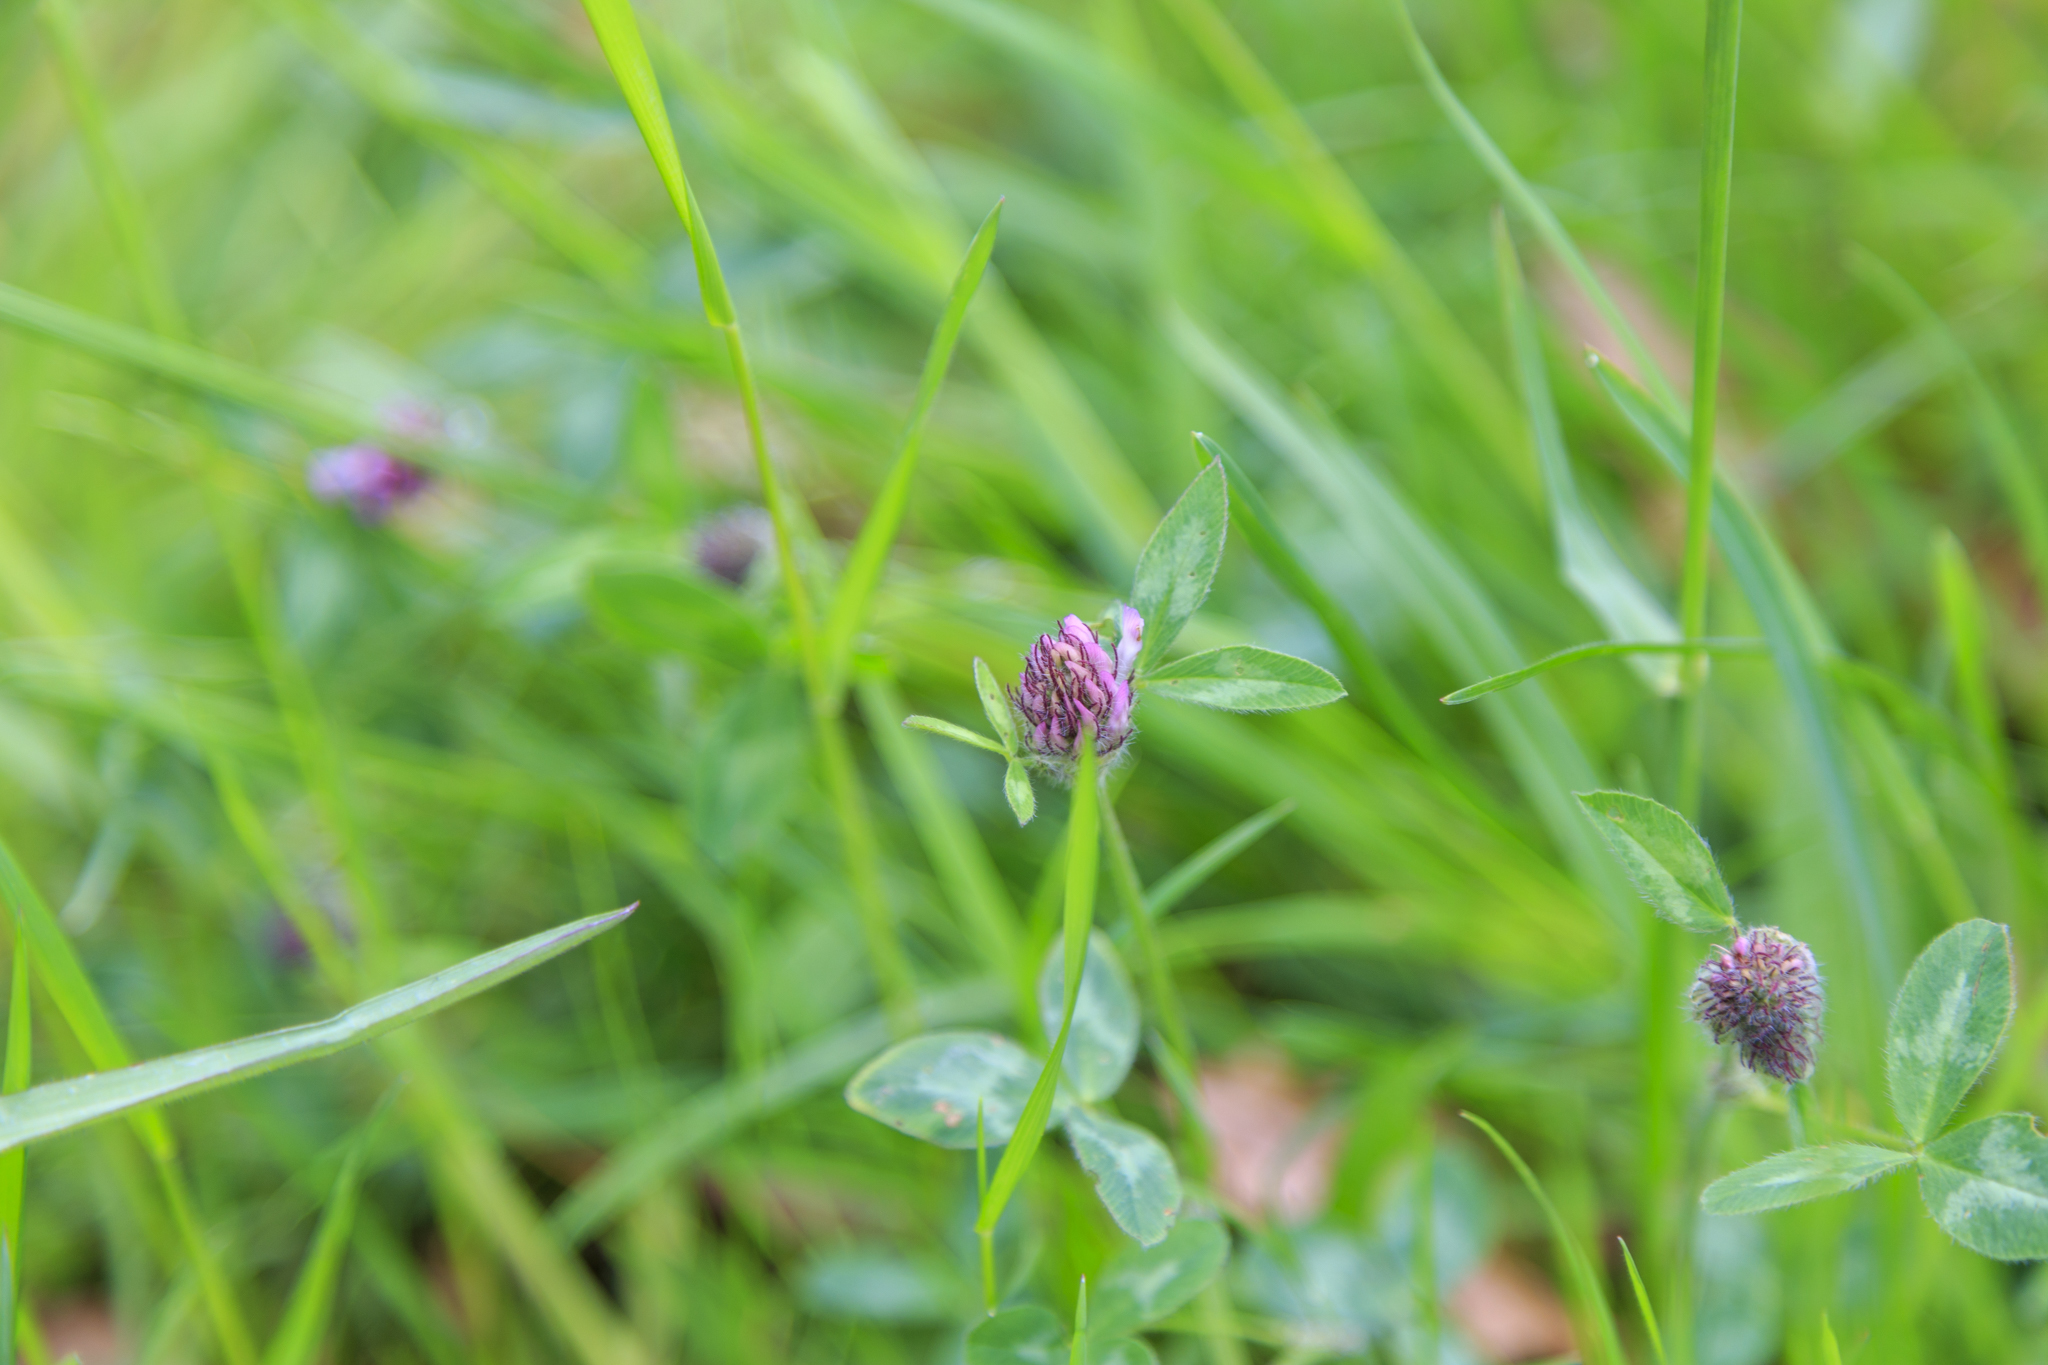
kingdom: Plantae
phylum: Tracheophyta
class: Magnoliopsida
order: Fabales
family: Fabaceae
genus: Trifolium
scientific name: Trifolium pratense
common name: Red clover
